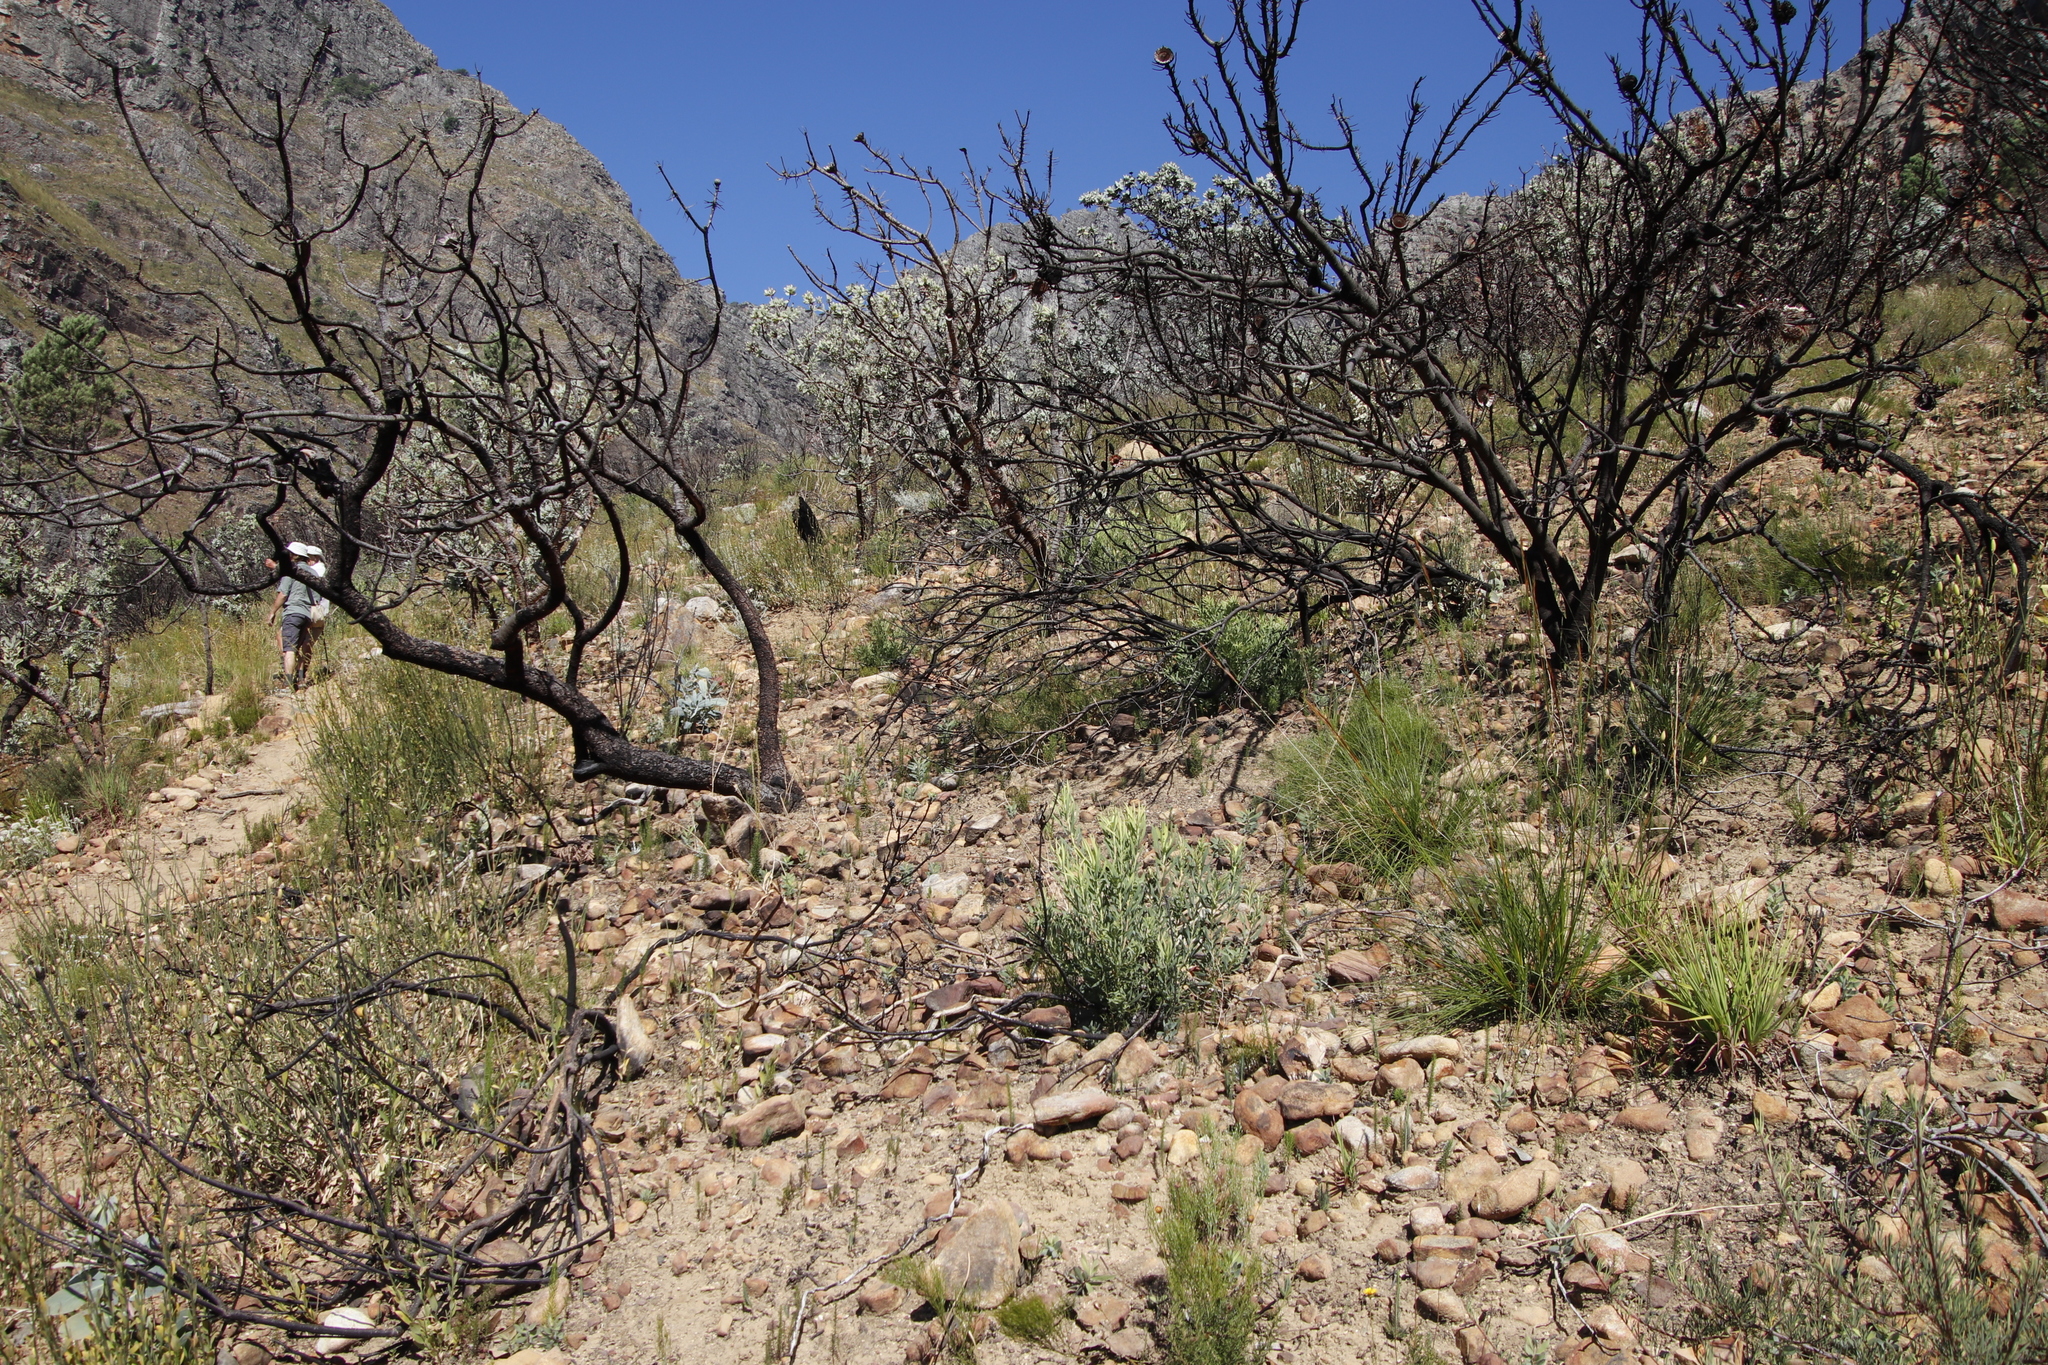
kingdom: Plantae
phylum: Tracheophyta
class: Magnoliopsida
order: Proteales
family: Proteaceae
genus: Leucadendron
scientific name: Leucadendron salignum
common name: Common sunshine conebush
